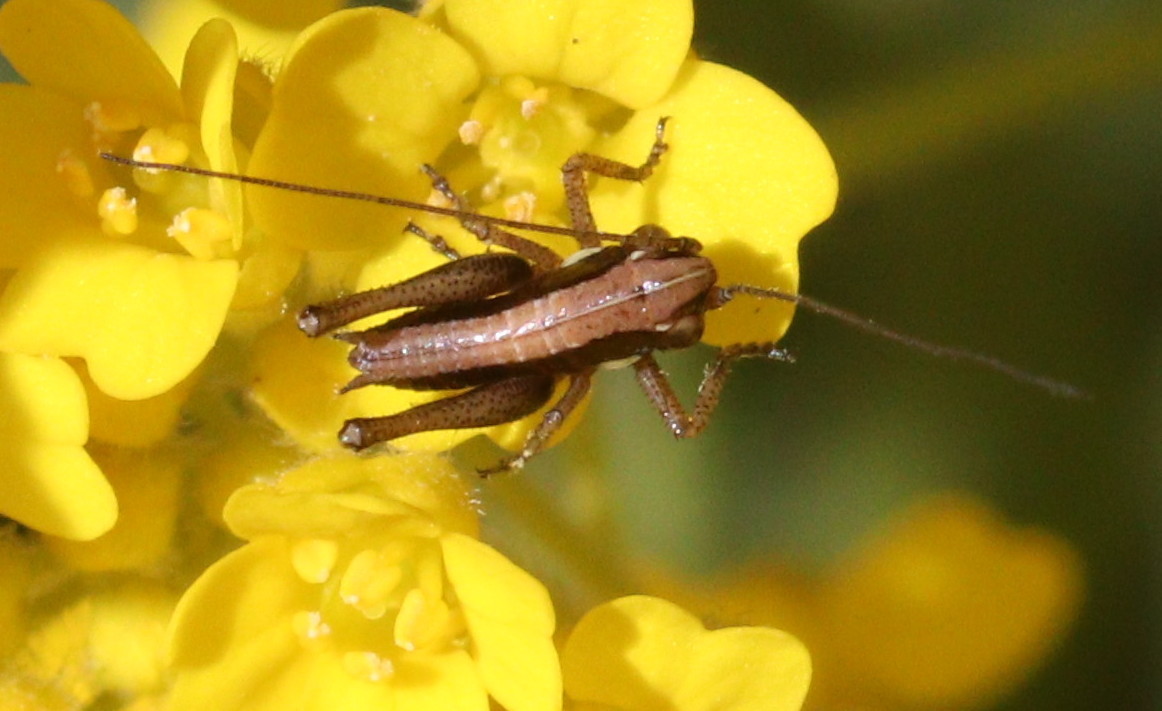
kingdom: Animalia
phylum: Arthropoda
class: Insecta
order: Orthoptera
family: Tettigoniidae
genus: Platycleis
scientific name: Platycleis albopunctata
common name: Grey bush-cricket
